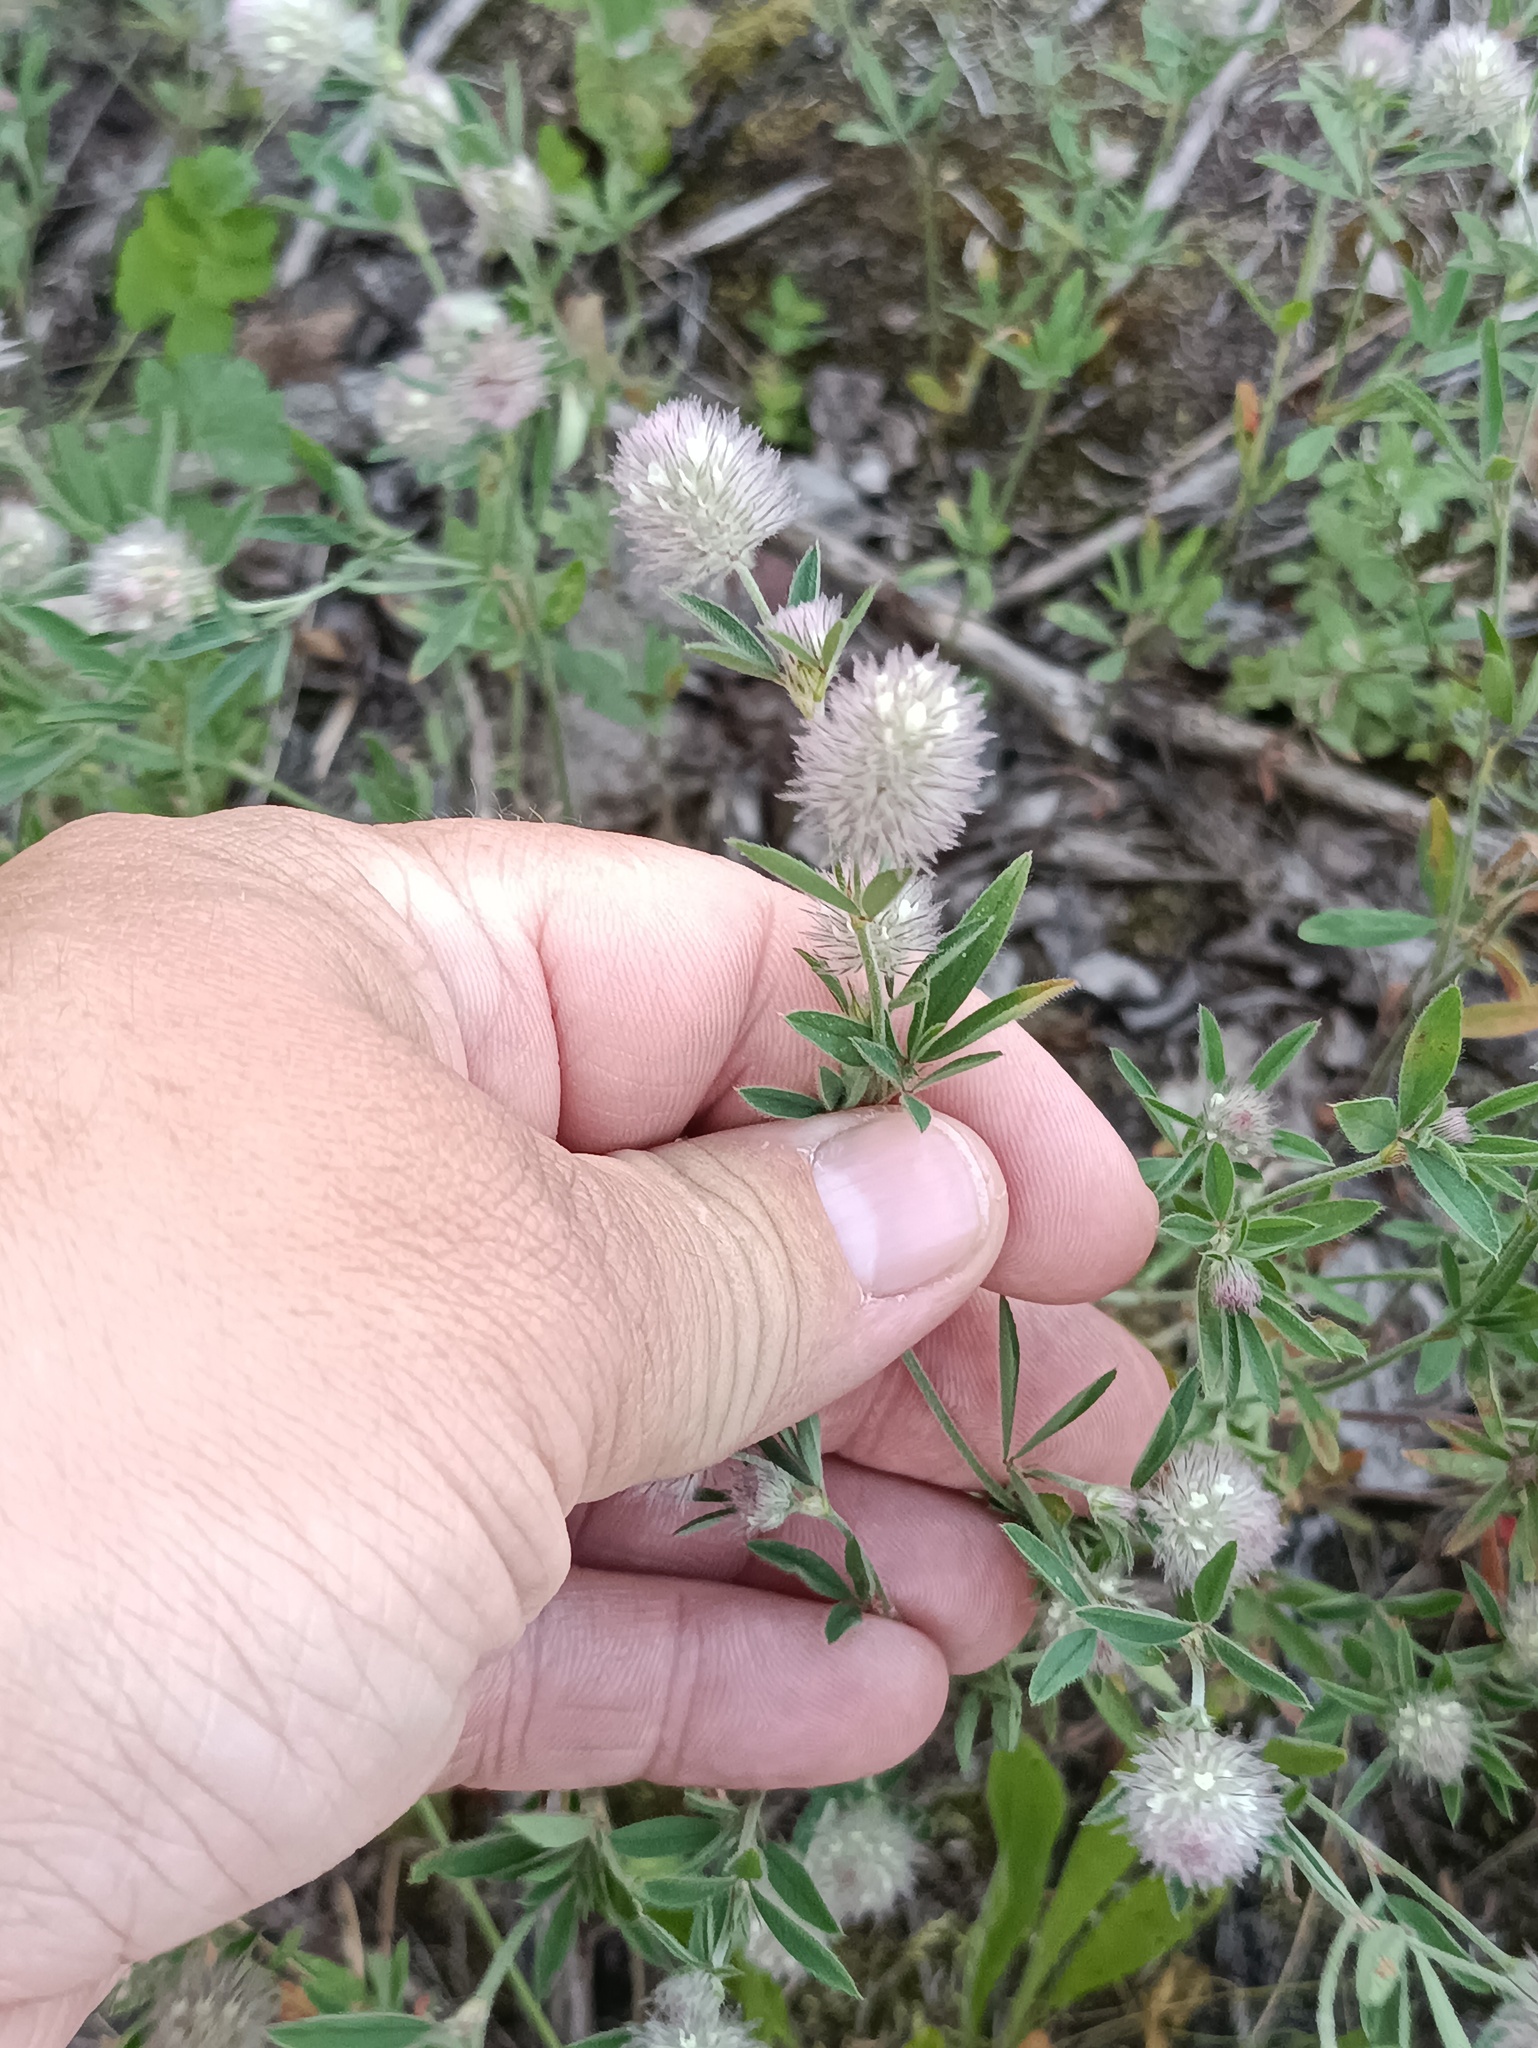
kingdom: Plantae
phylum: Tracheophyta
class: Magnoliopsida
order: Fabales
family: Fabaceae
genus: Trifolium
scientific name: Trifolium arvense
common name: Hare's-foot clover
